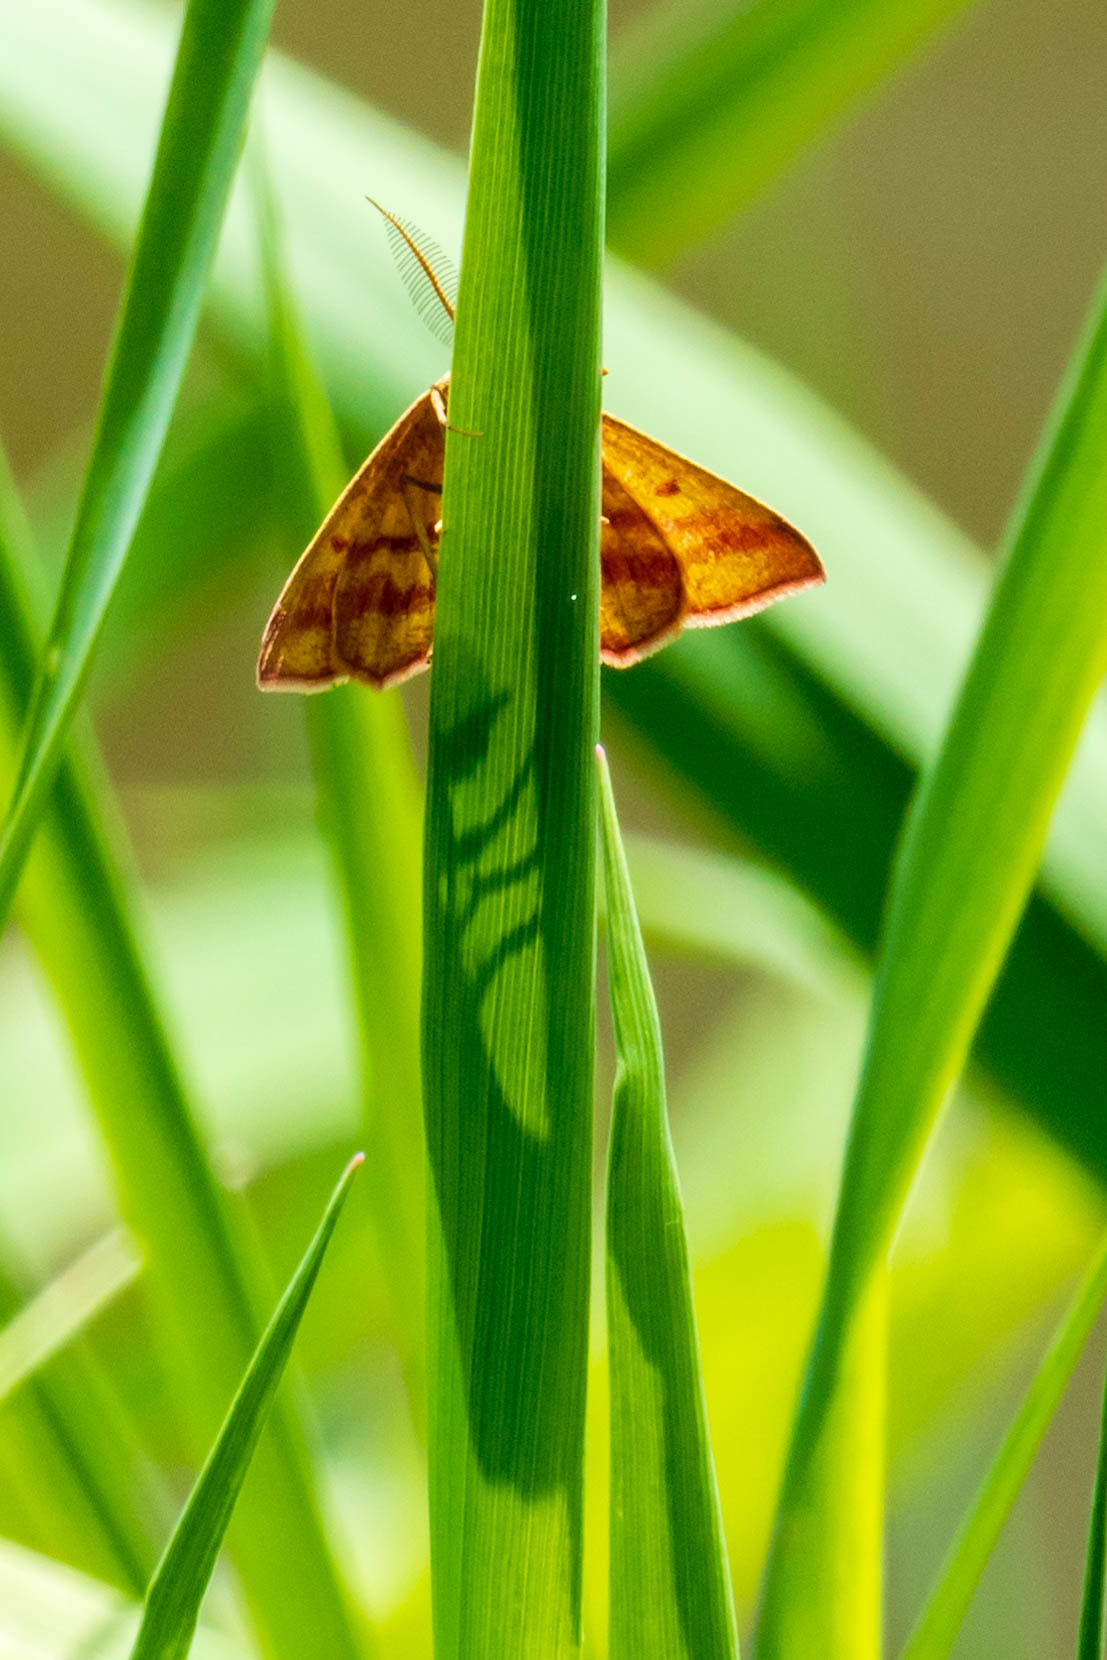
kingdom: Animalia
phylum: Arthropoda
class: Insecta
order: Lepidoptera
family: Geometridae
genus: Haematopis
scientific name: Haematopis grataria
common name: Chickweed geometer
